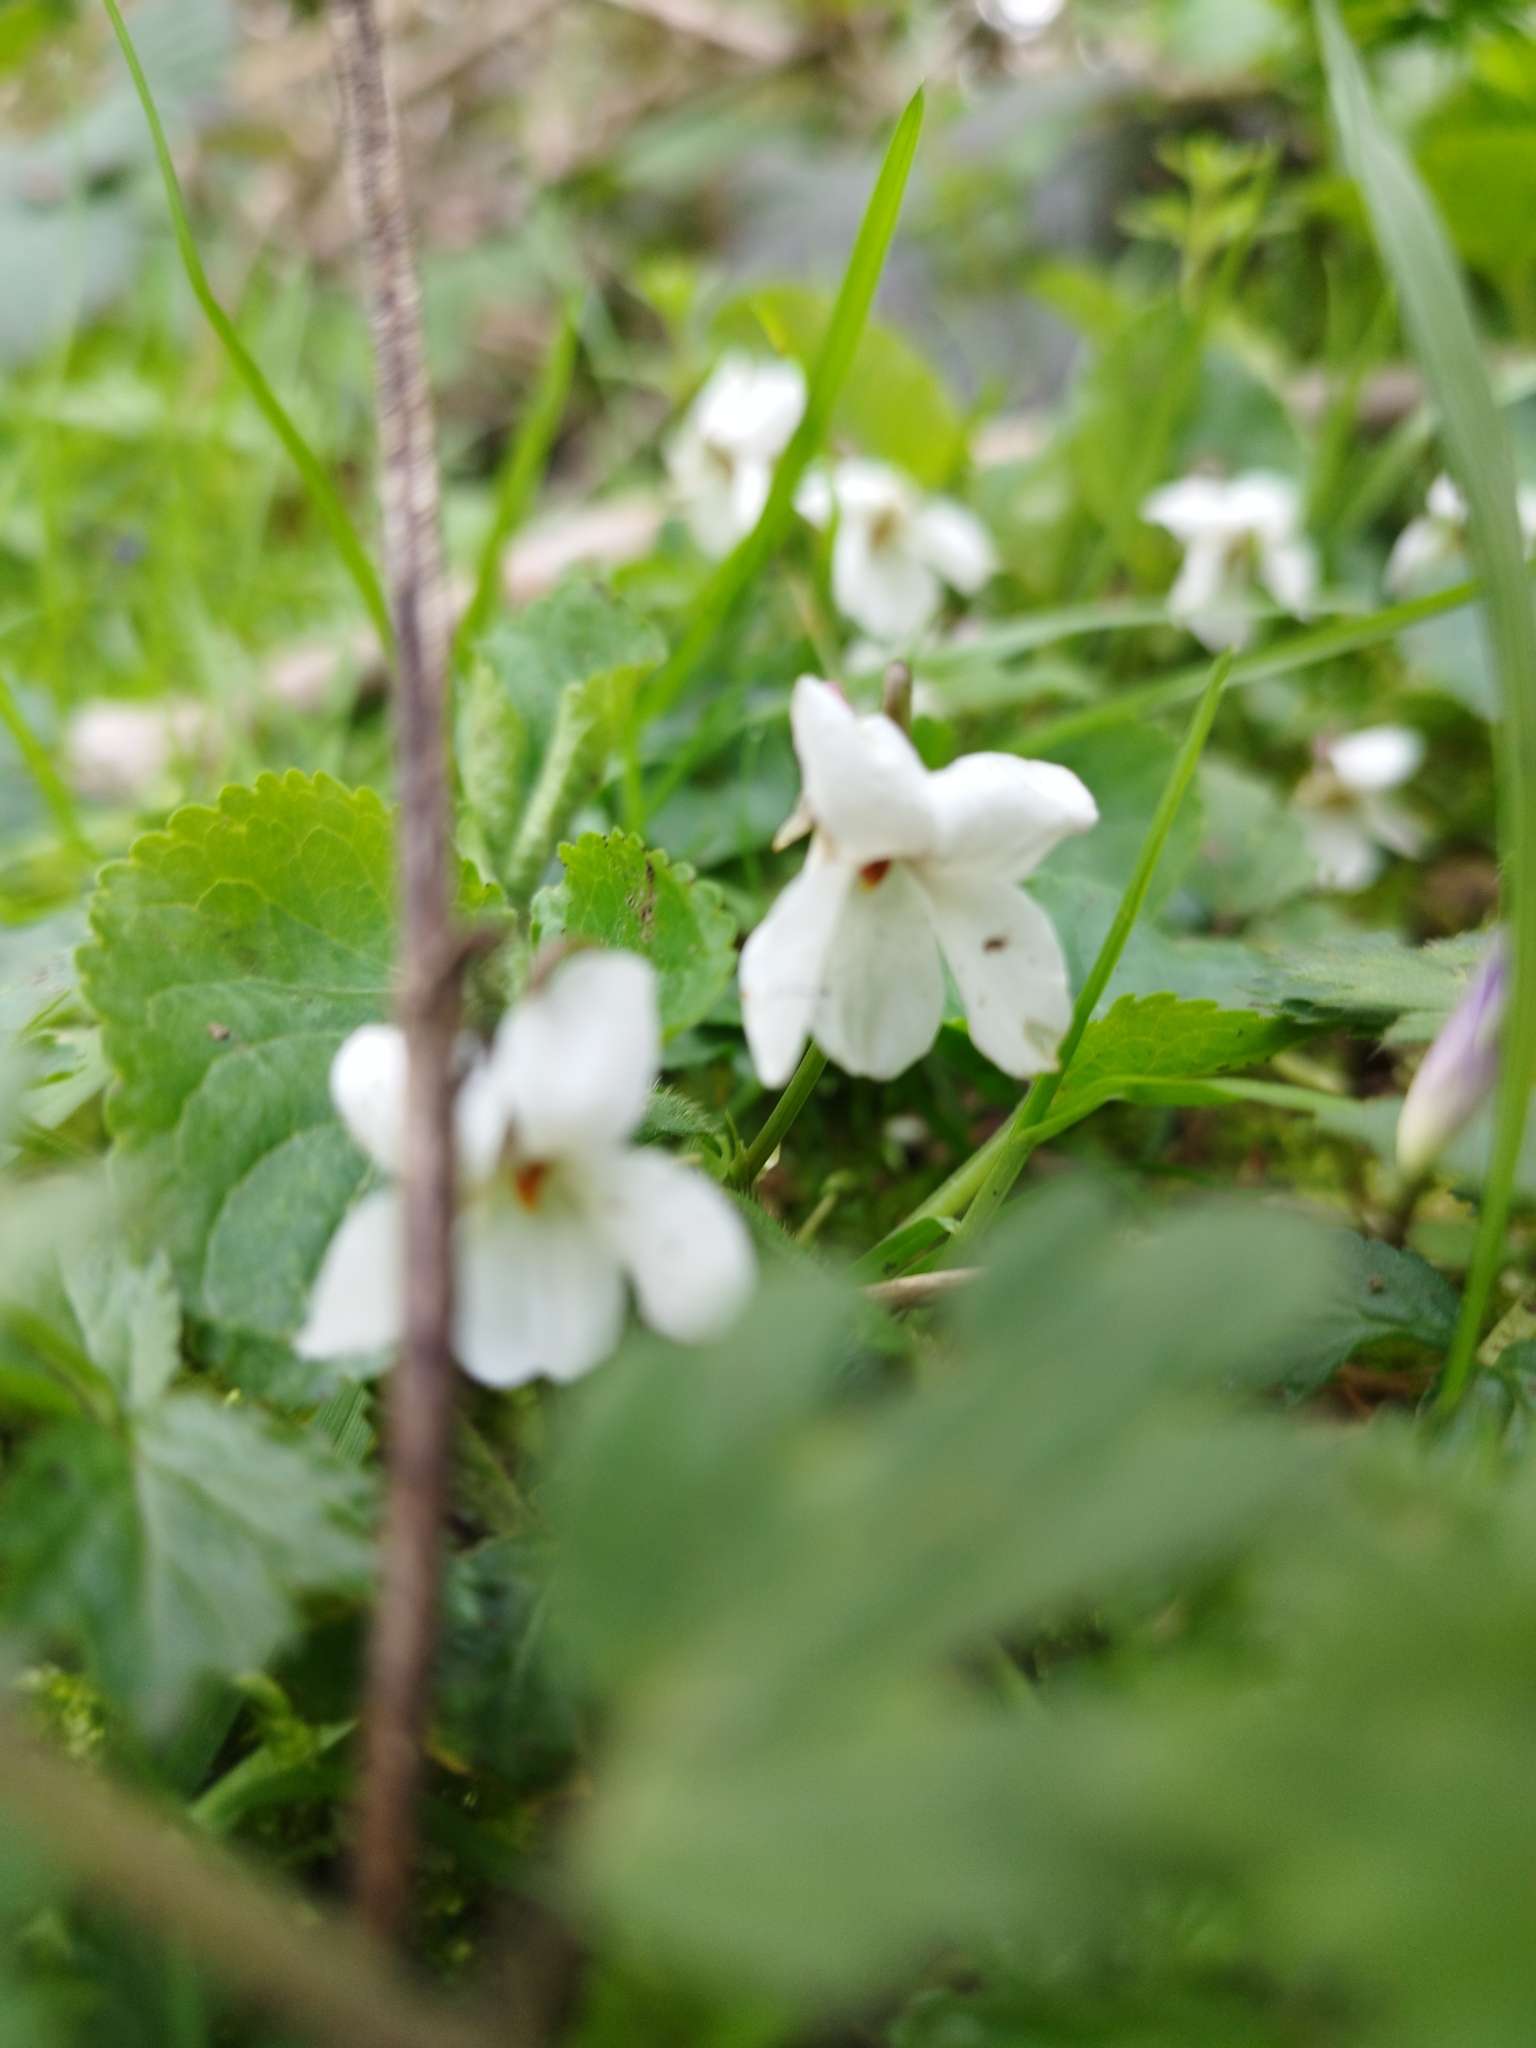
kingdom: Plantae
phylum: Tracheophyta
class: Magnoliopsida
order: Malpighiales
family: Violaceae
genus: Viola
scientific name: Viola odorata
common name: Sweet violet
